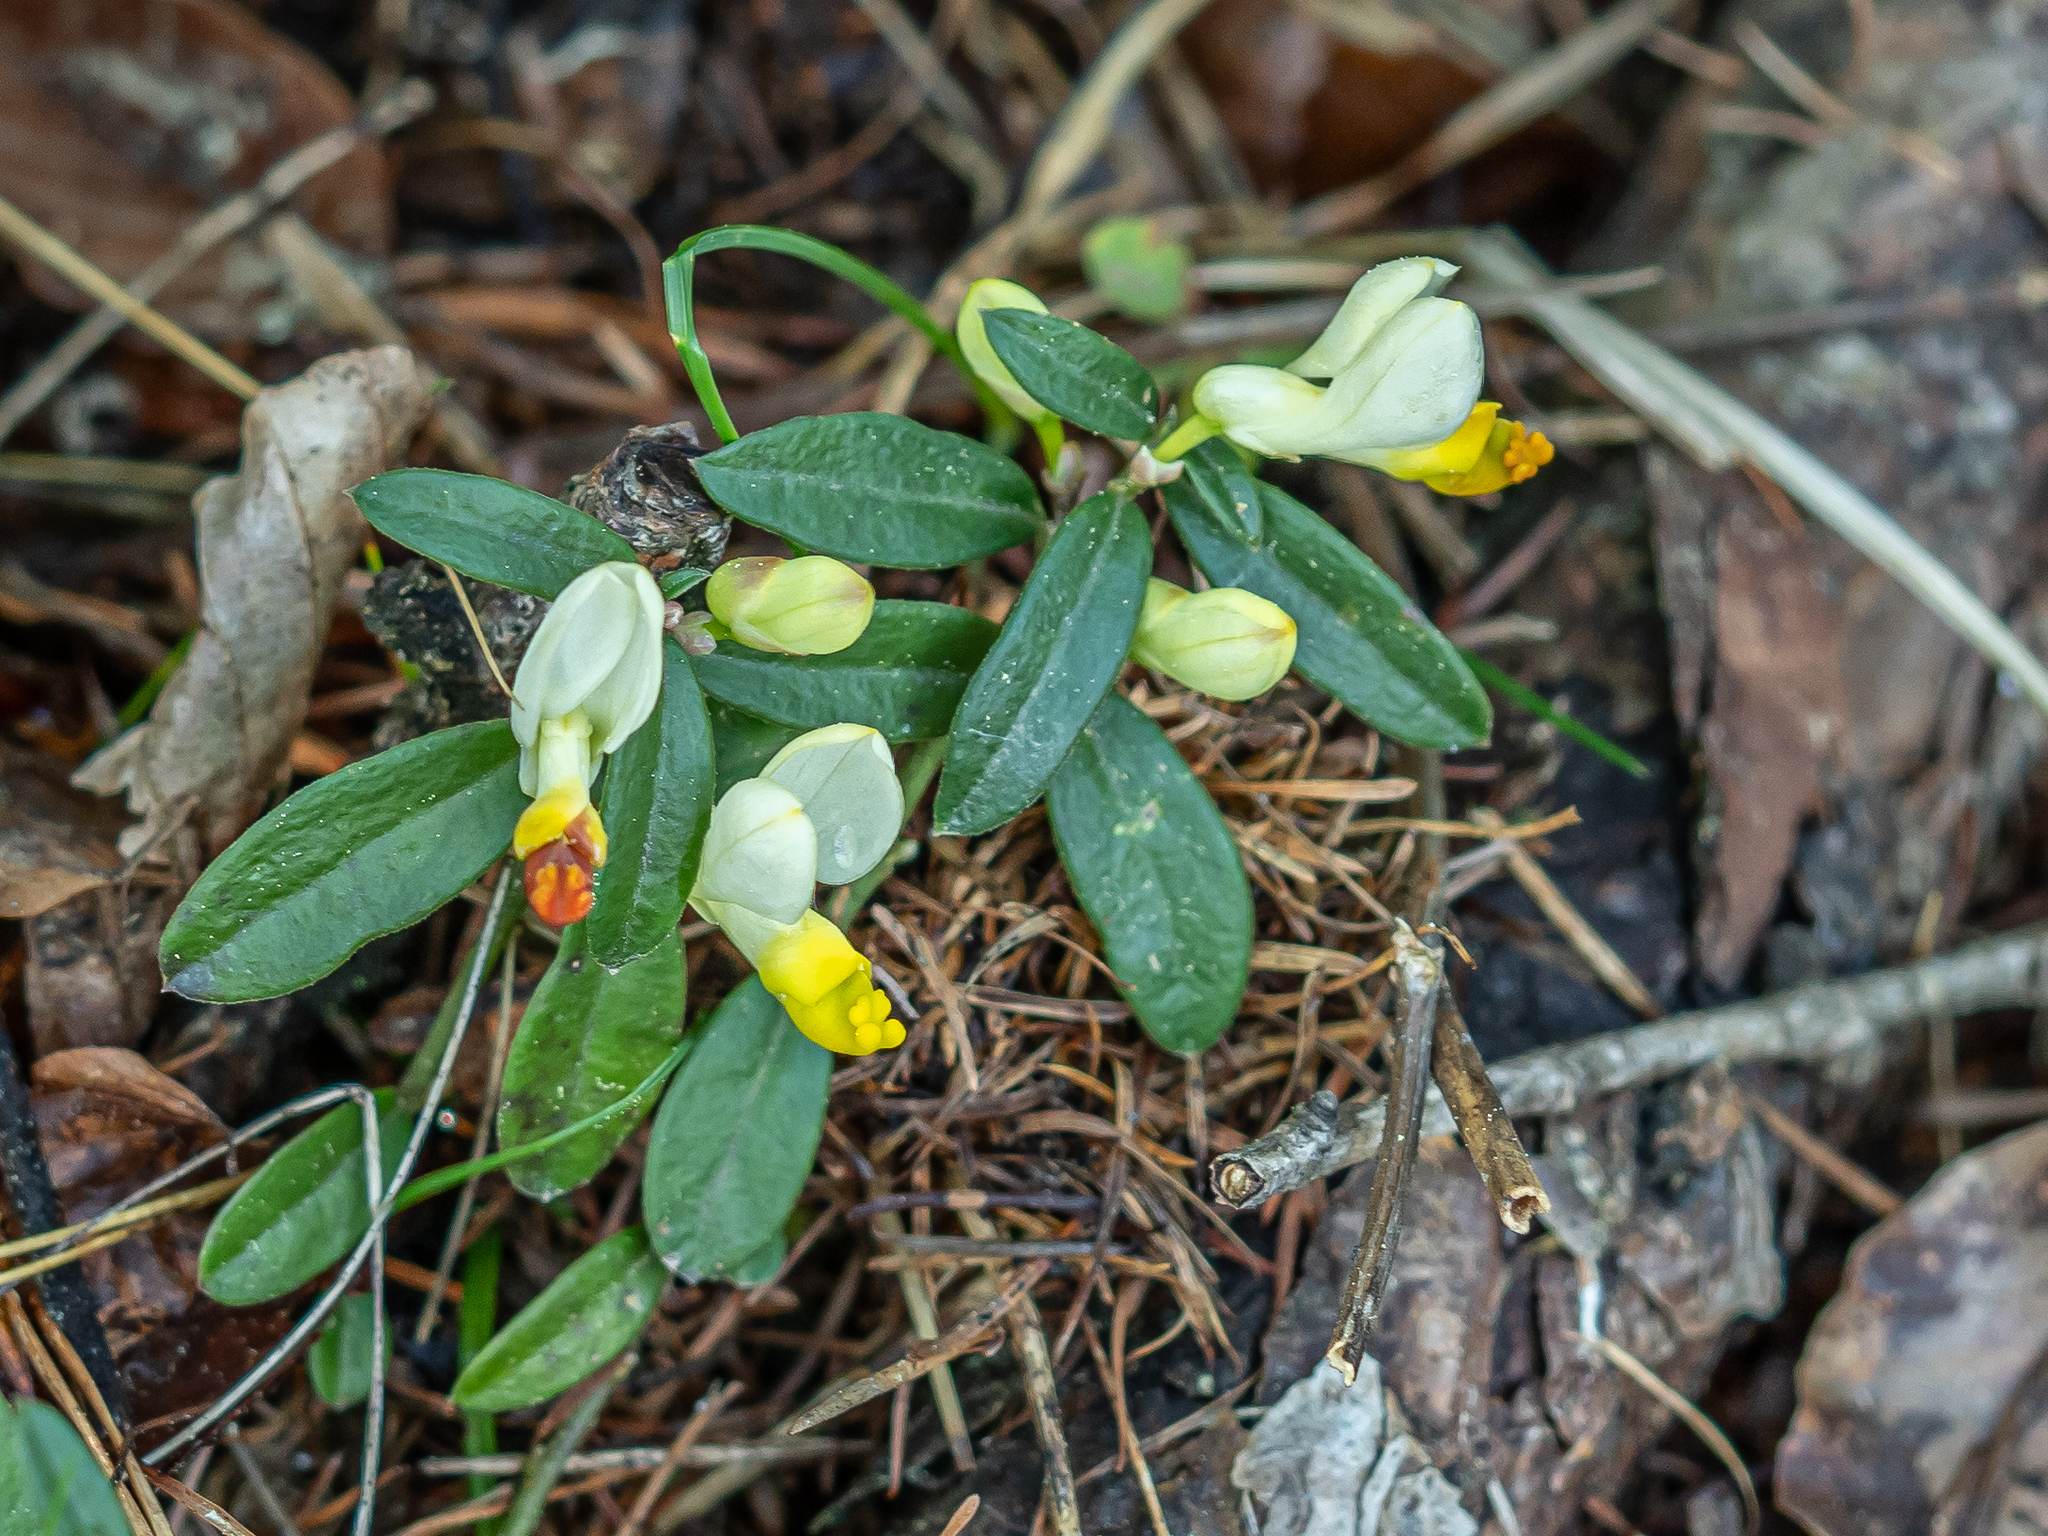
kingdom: Plantae
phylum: Tracheophyta
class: Magnoliopsida
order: Fabales
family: Polygalaceae
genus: Polygaloides
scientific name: Polygaloides chamaebuxus
